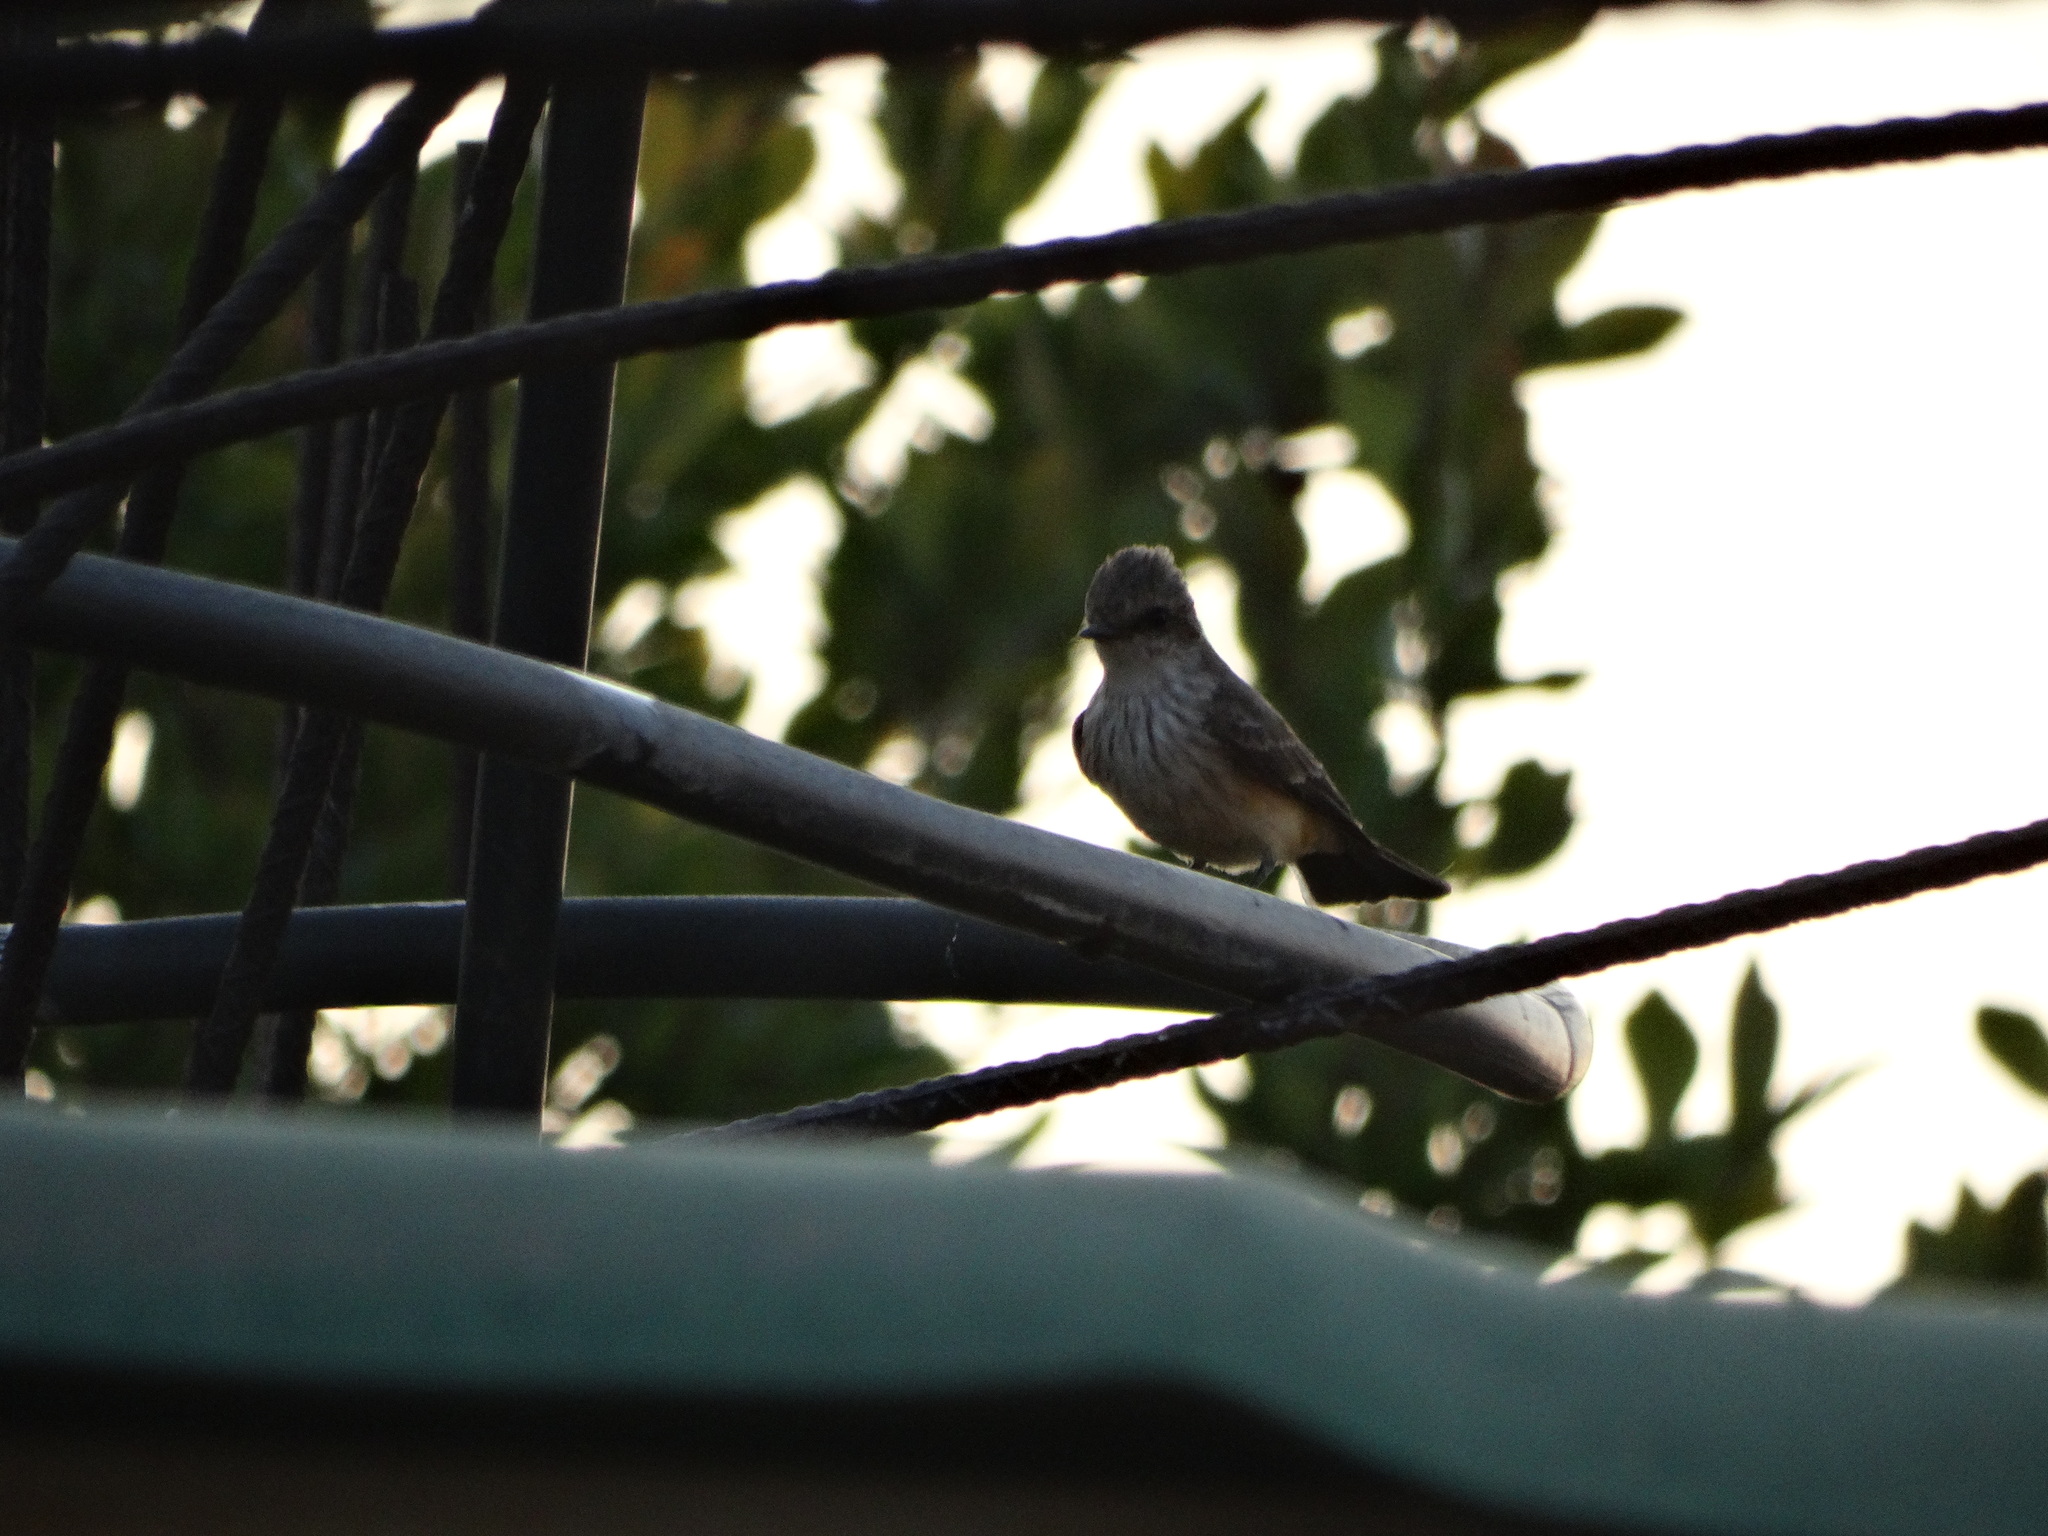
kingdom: Animalia
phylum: Chordata
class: Aves
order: Passeriformes
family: Tyrannidae
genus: Pyrocephalus
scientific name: Pyrocephalus rubinus
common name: Vermilion flycatcher
